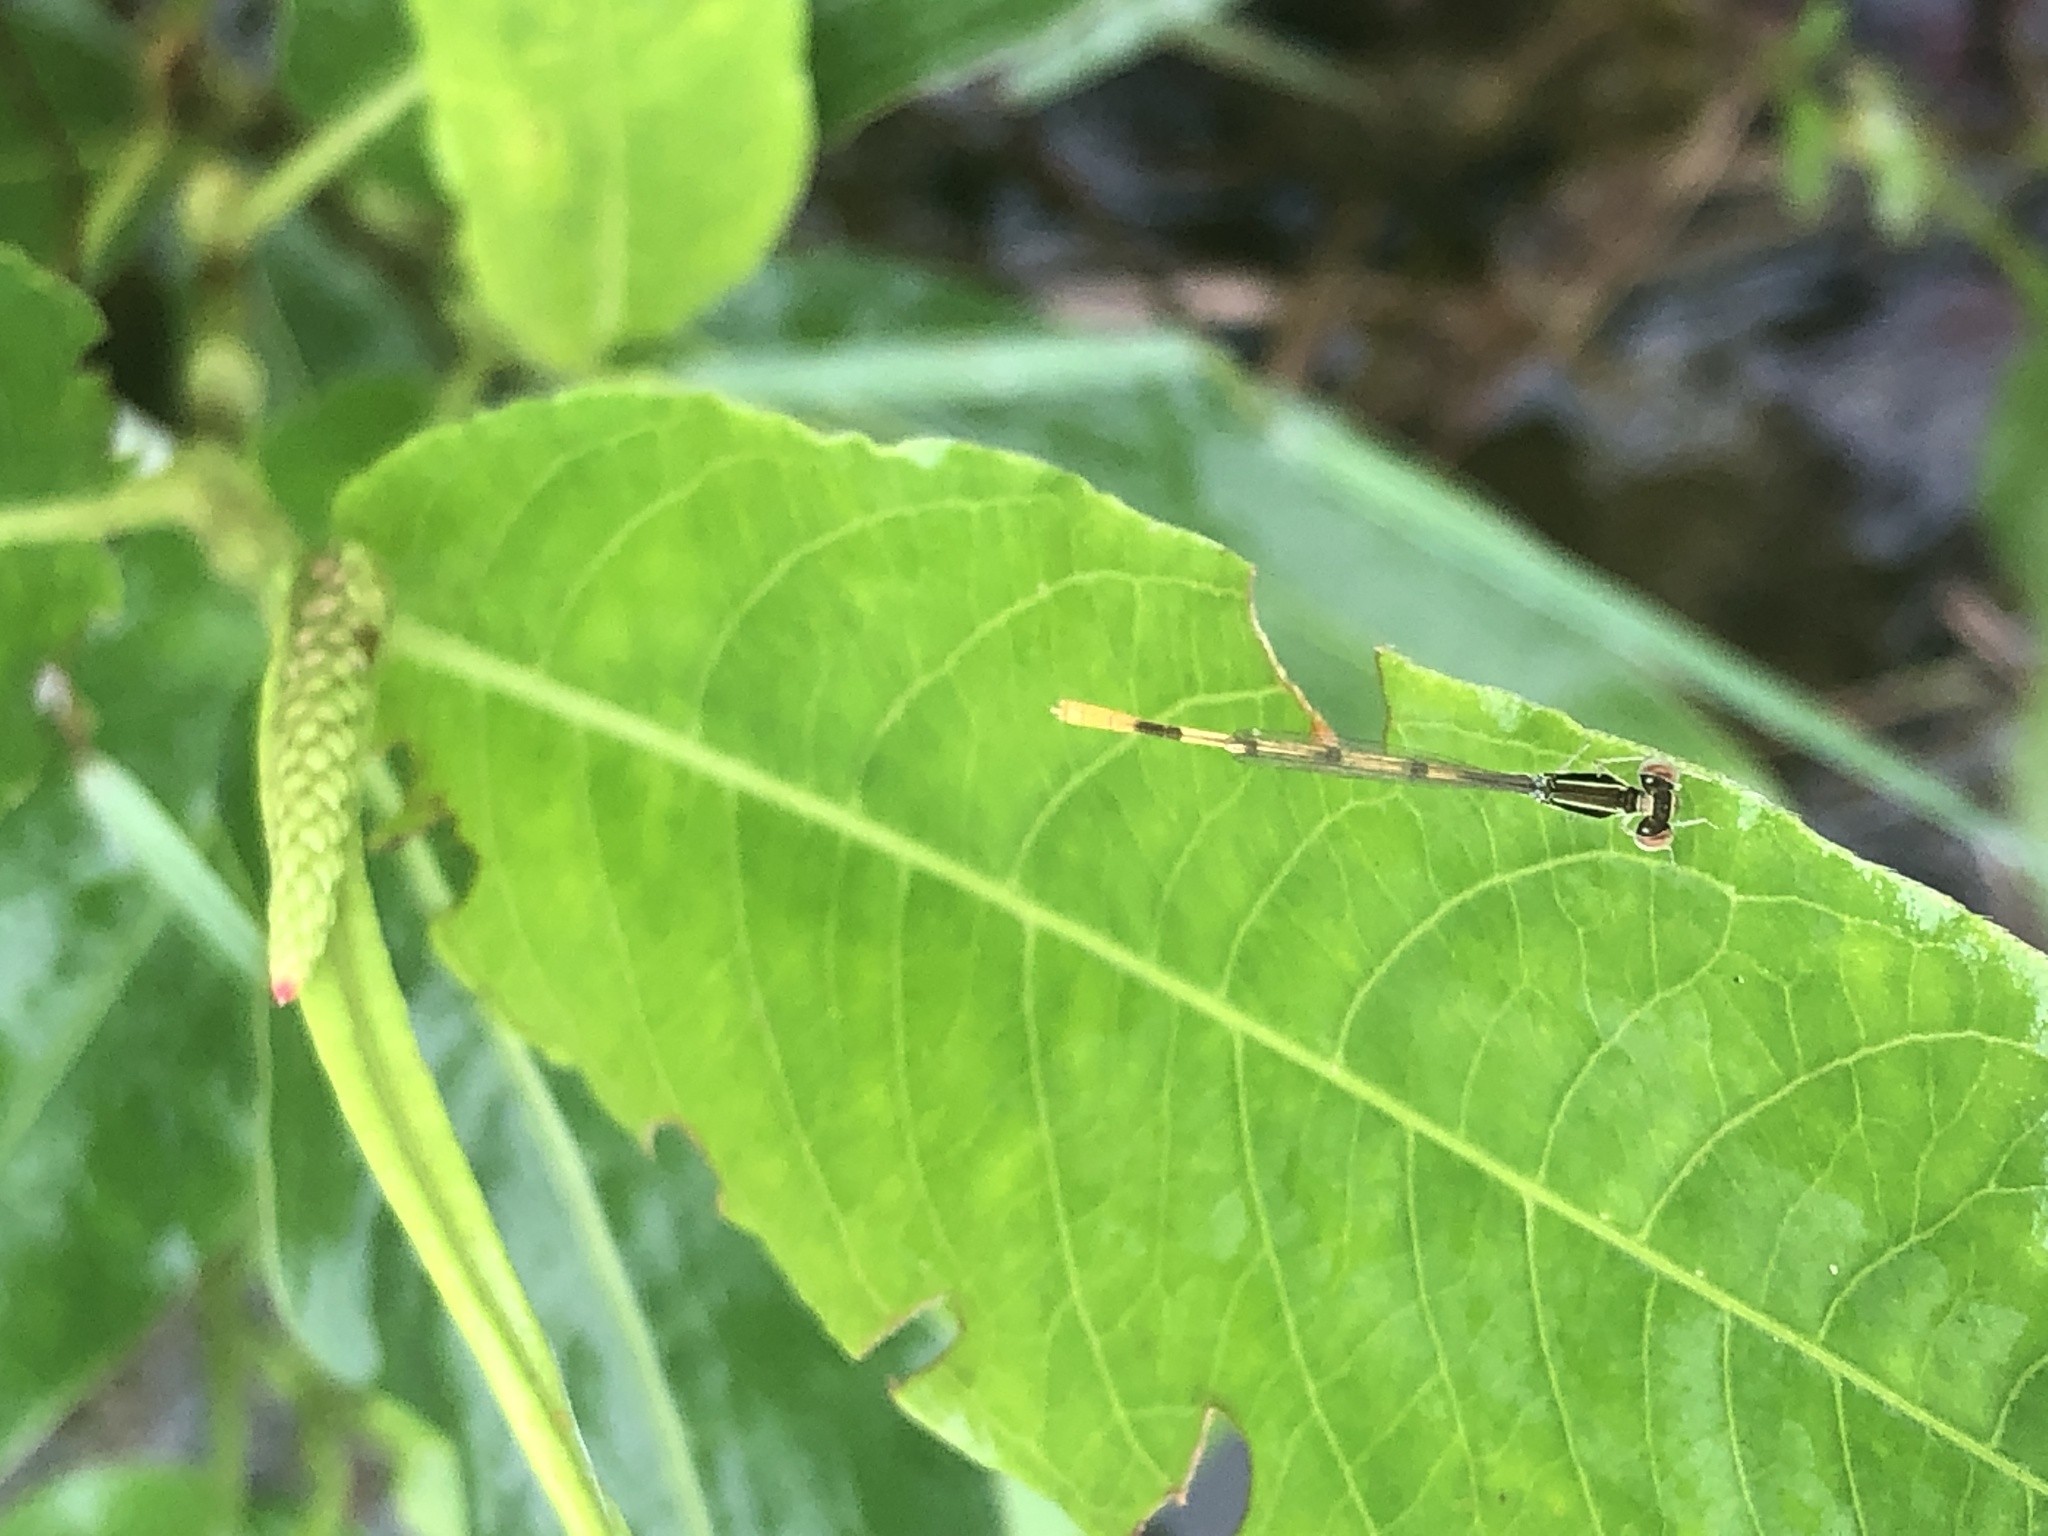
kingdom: Animalia
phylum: Arthropoda
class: Insecta
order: Odonata
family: Coenagrionidae
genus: Ischnura
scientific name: Ischnura hastata
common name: Citrine forktail
